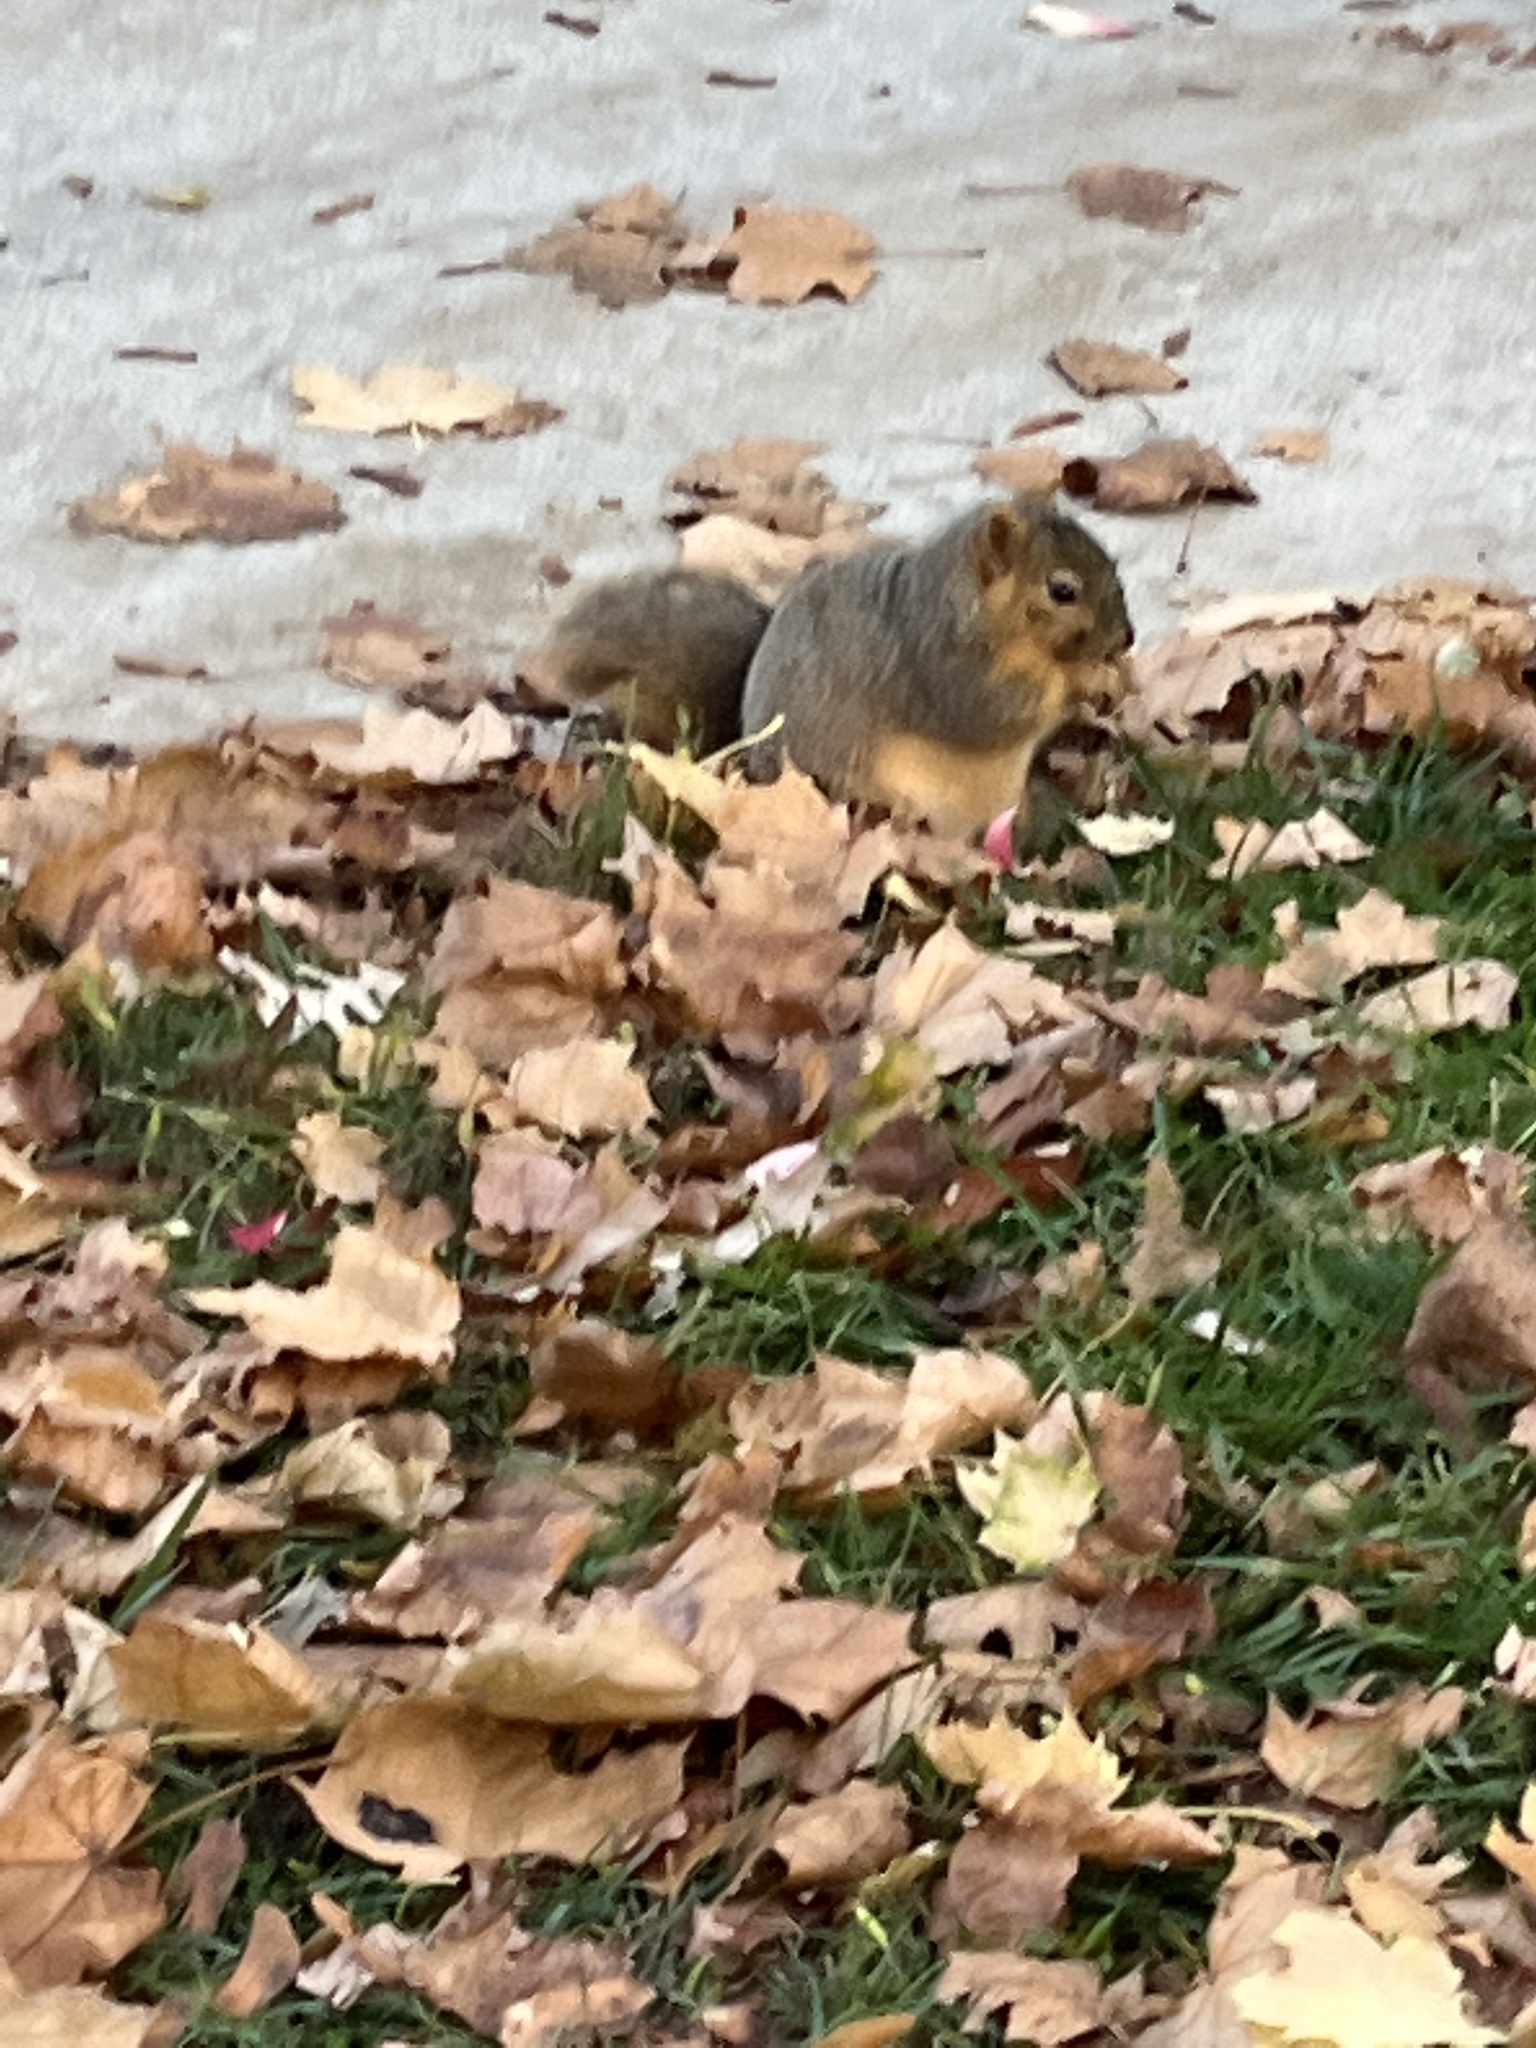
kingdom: Animalia
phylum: Chordata
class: Mammalia
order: Rodentia
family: Sciuridae
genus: Sciurus
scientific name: Sciurus niger
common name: Fox squirrel
